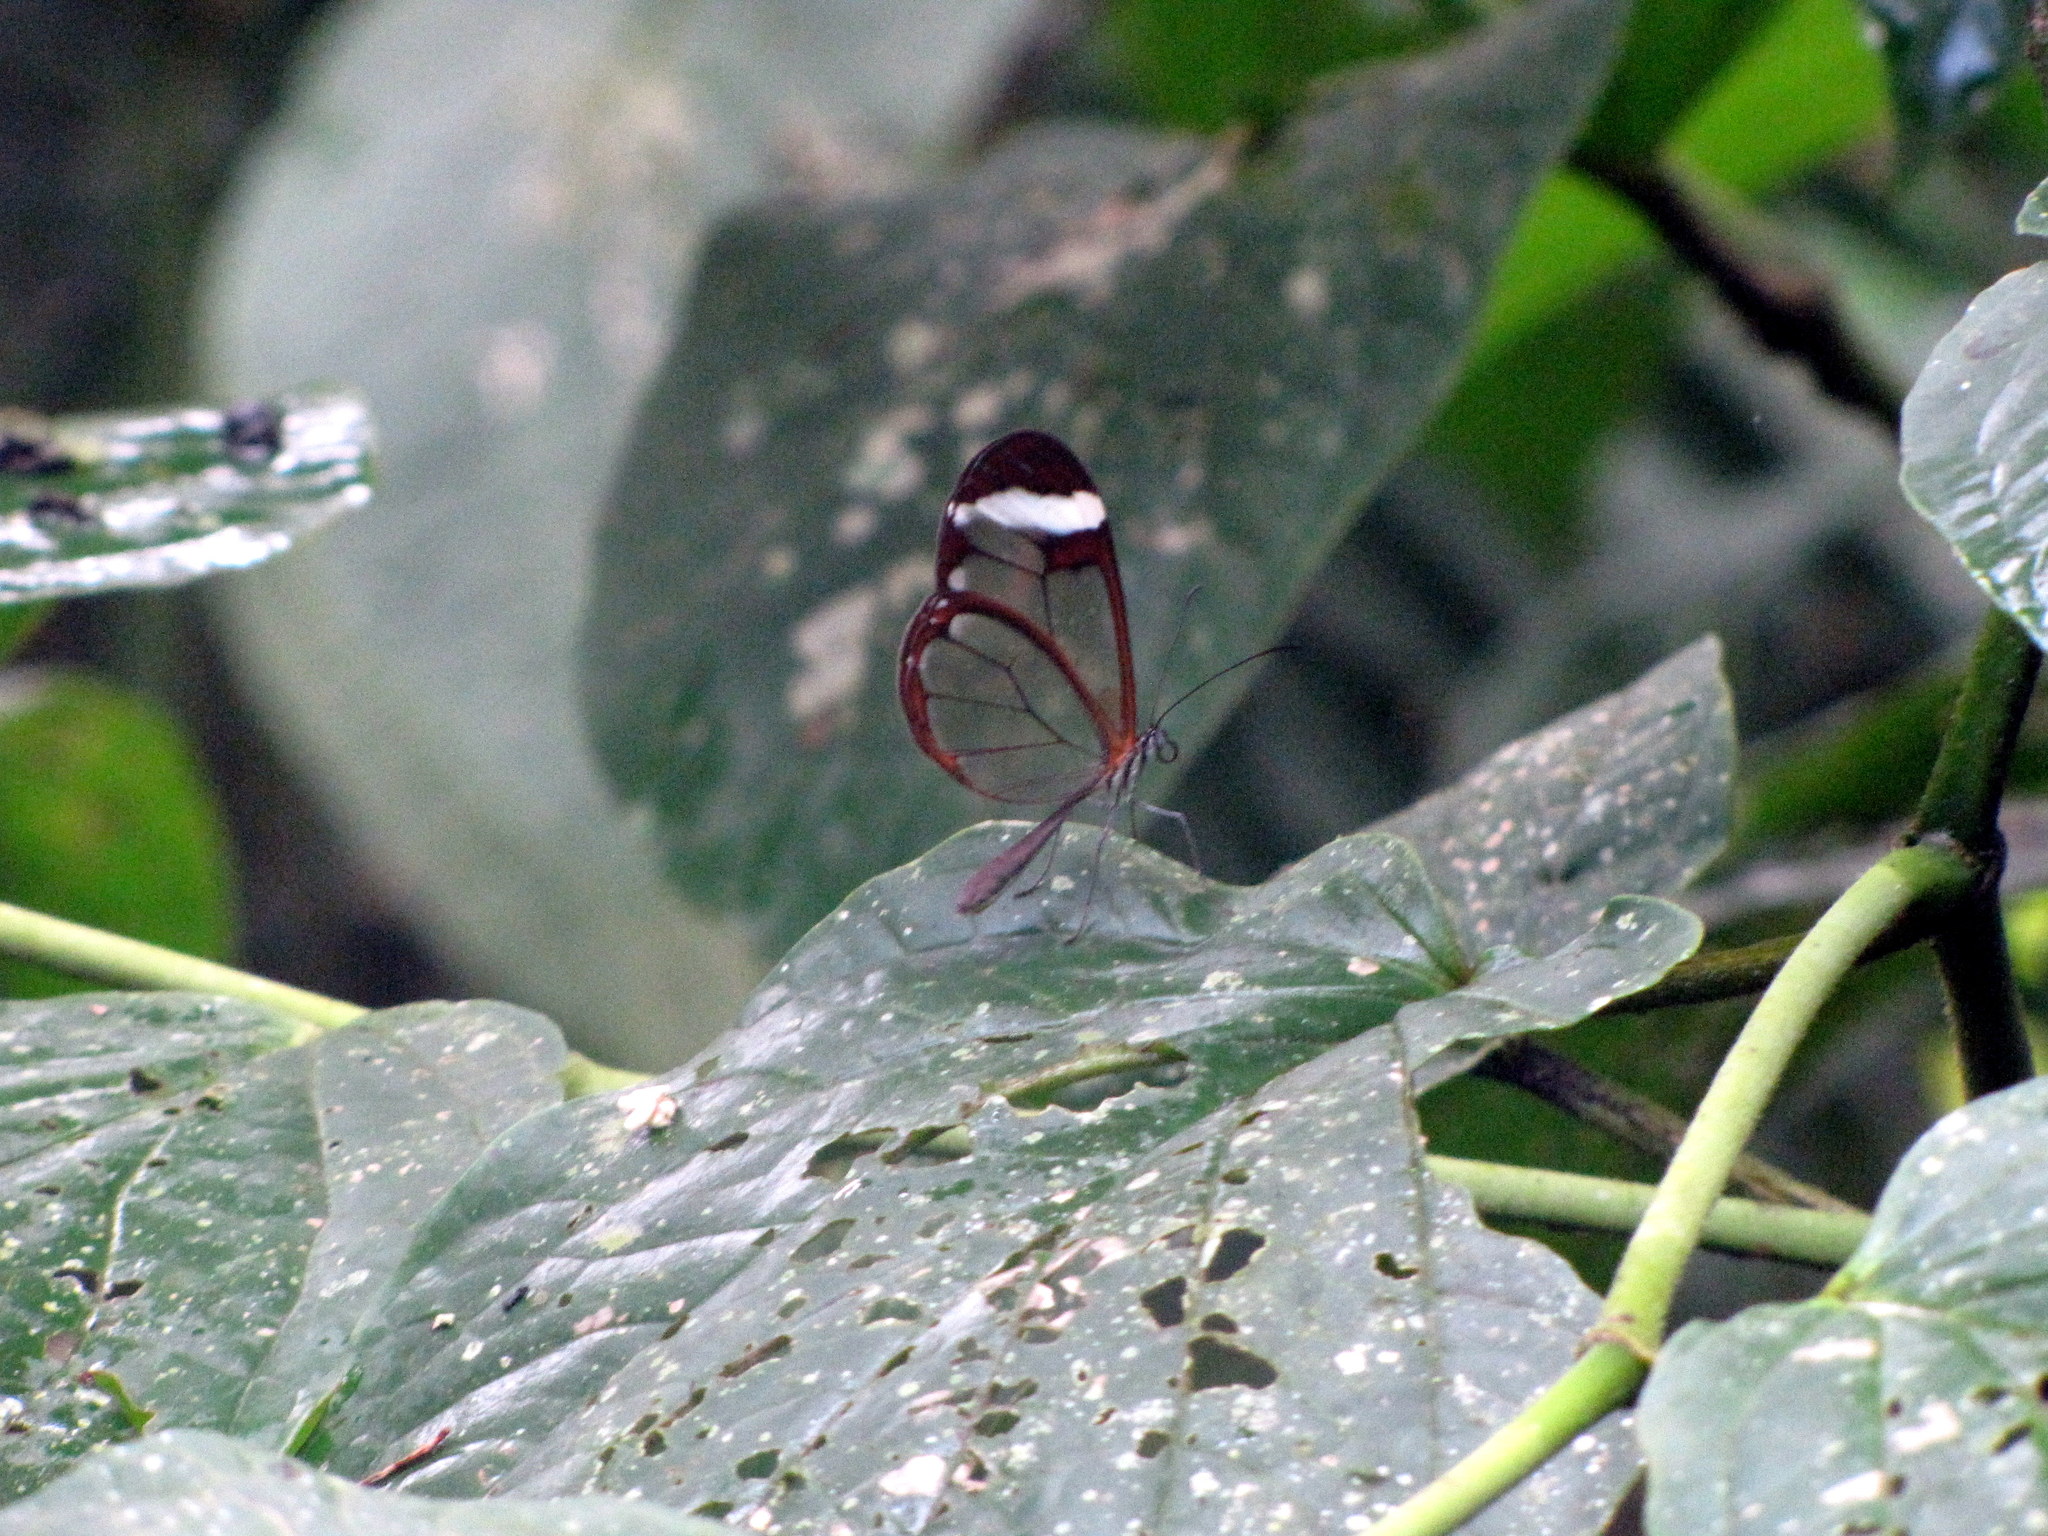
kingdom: Animalia
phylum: Arthropoda
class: Insecta
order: Lepidoptera
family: Nymphalidae
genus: Greta
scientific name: Greta morgane
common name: Thick-tipped greta
